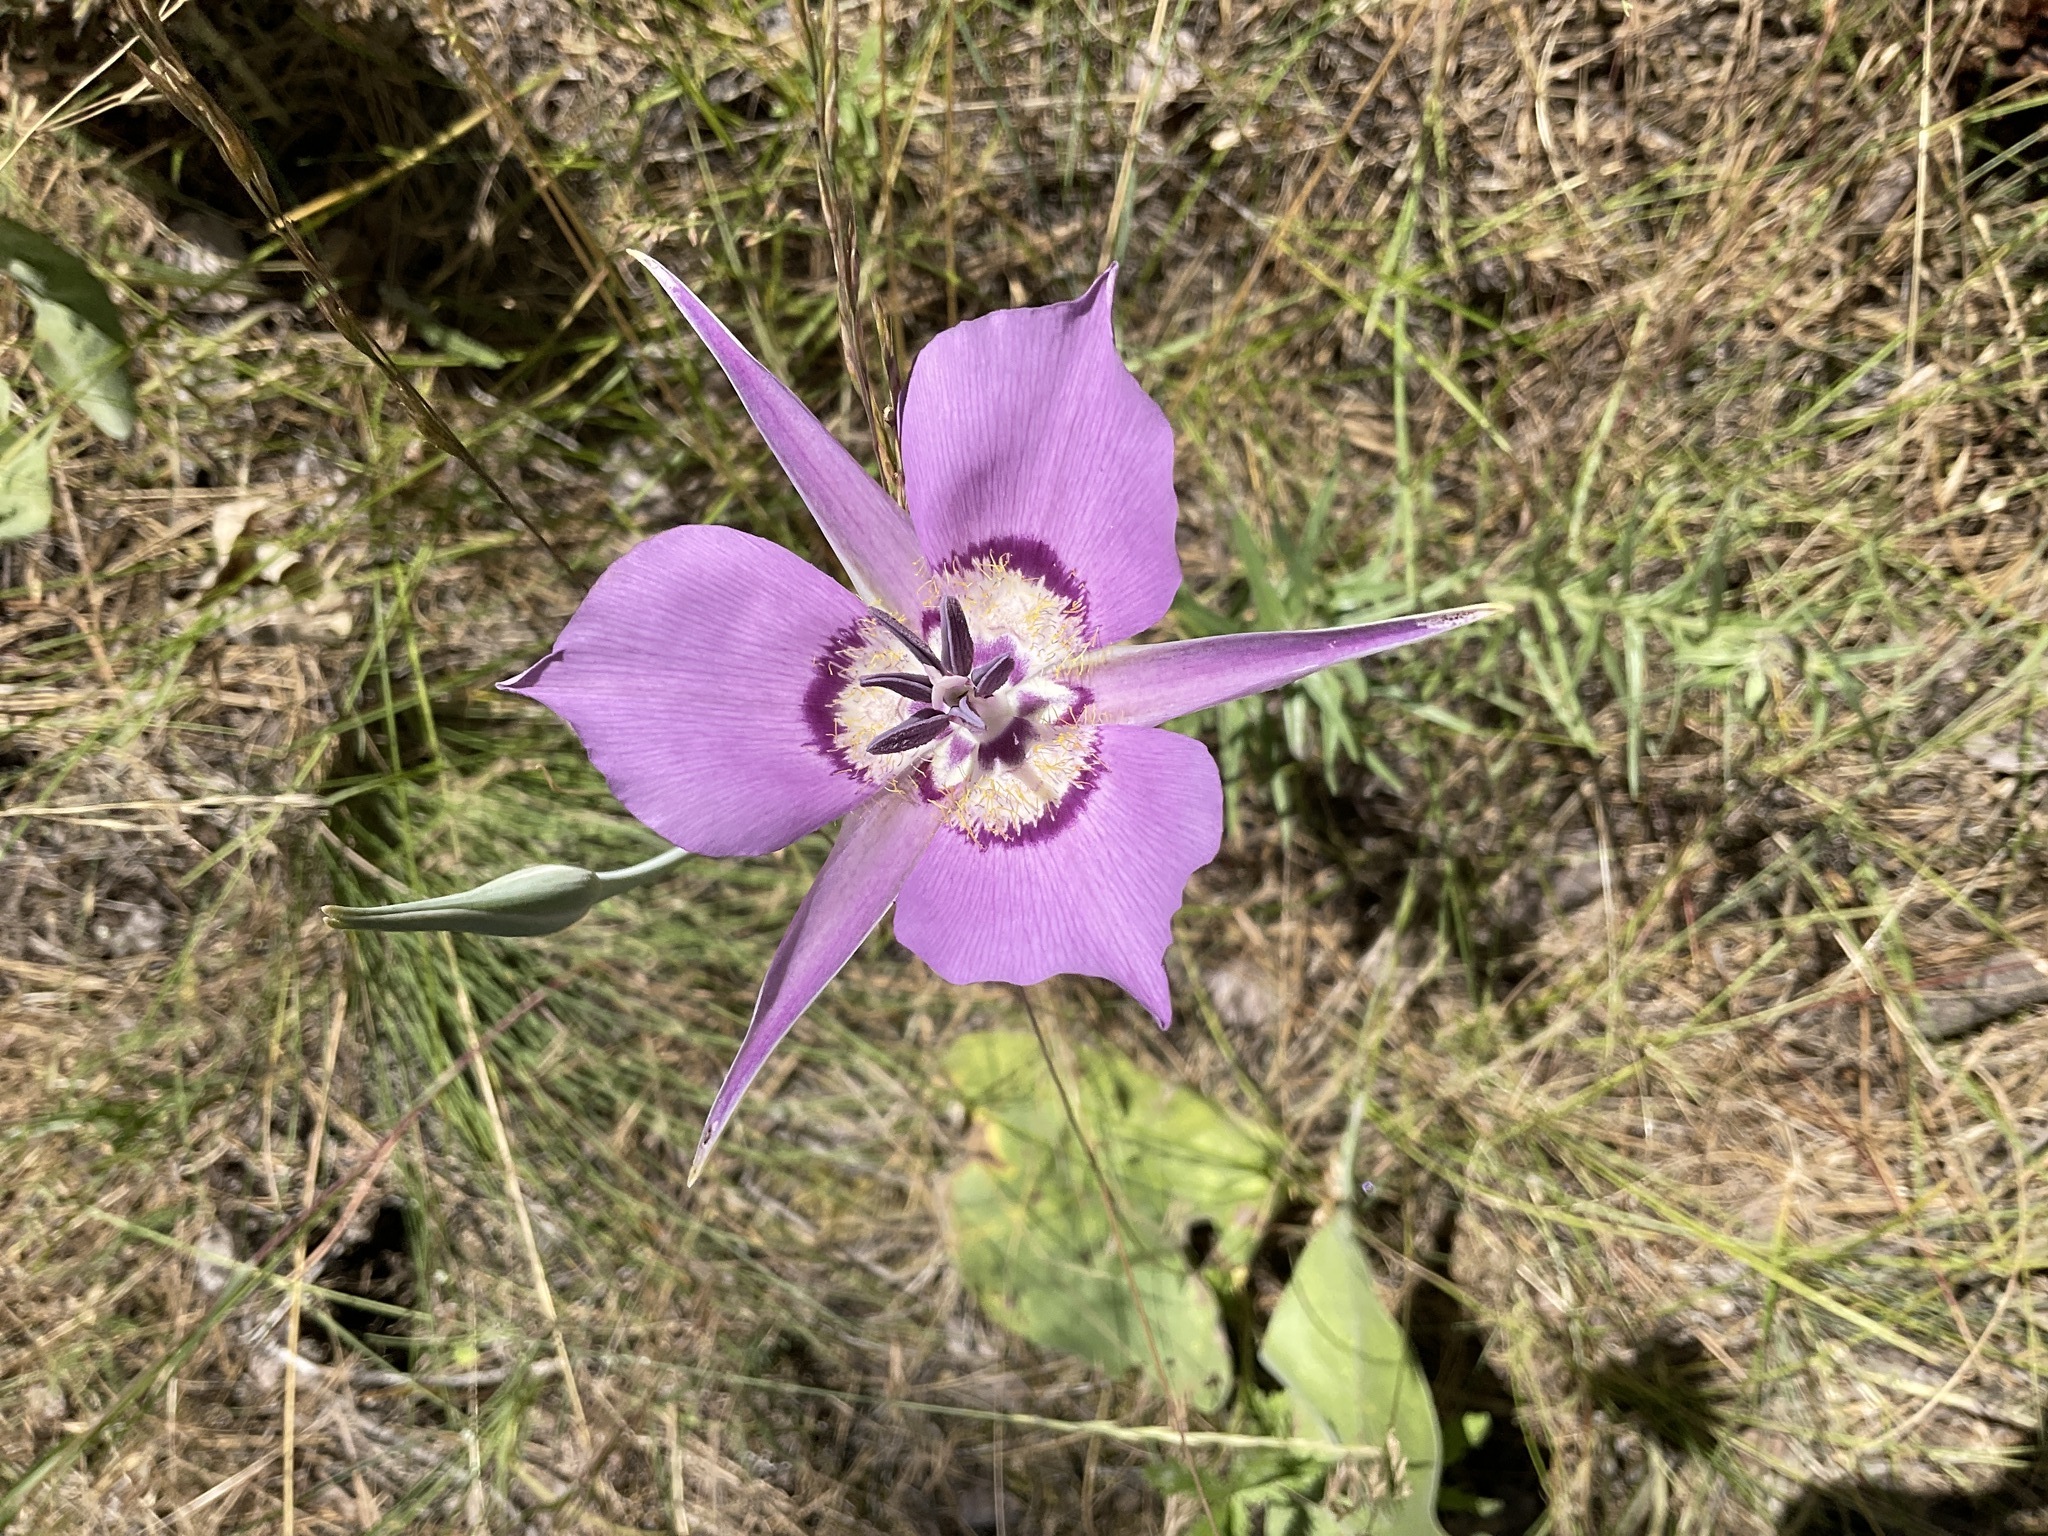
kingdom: Plantae
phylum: Tracheophyta
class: Liliopsida
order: Liliales
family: Liliaceae
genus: Calochortus
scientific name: Calochortus macrocarpus
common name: Green-band mariposa lily
